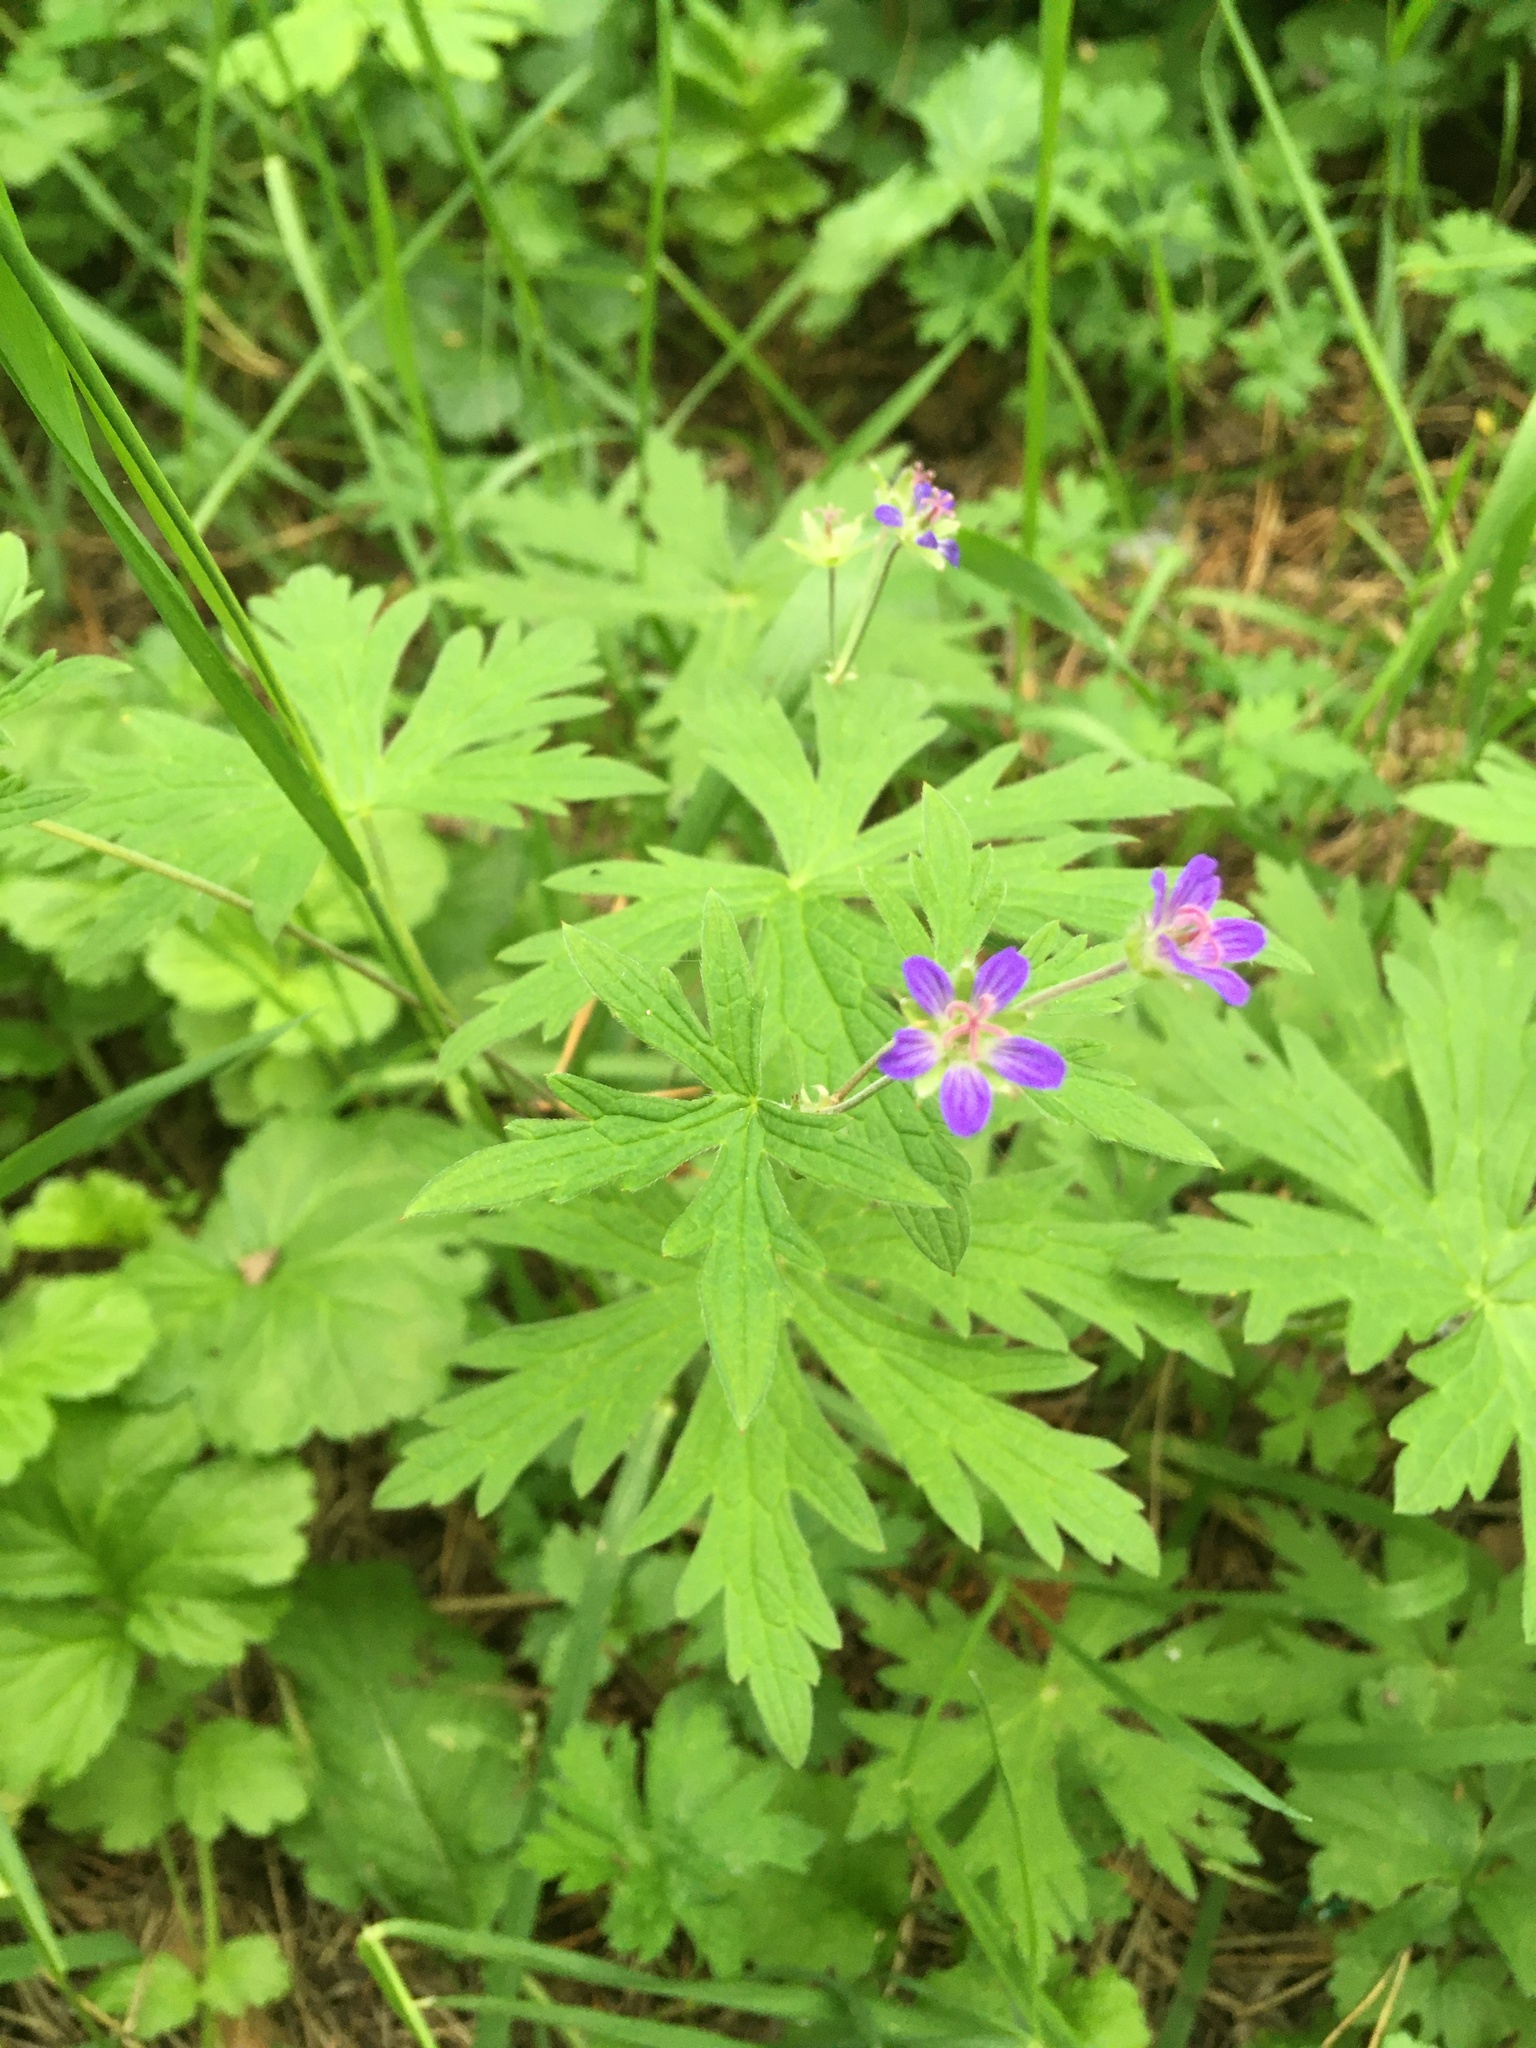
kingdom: Plantae
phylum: Tracheophyta
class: Magnoliopsida
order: Geraniales
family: Geraniaceae
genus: Geranium
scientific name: Geranium pseudosibiricum
